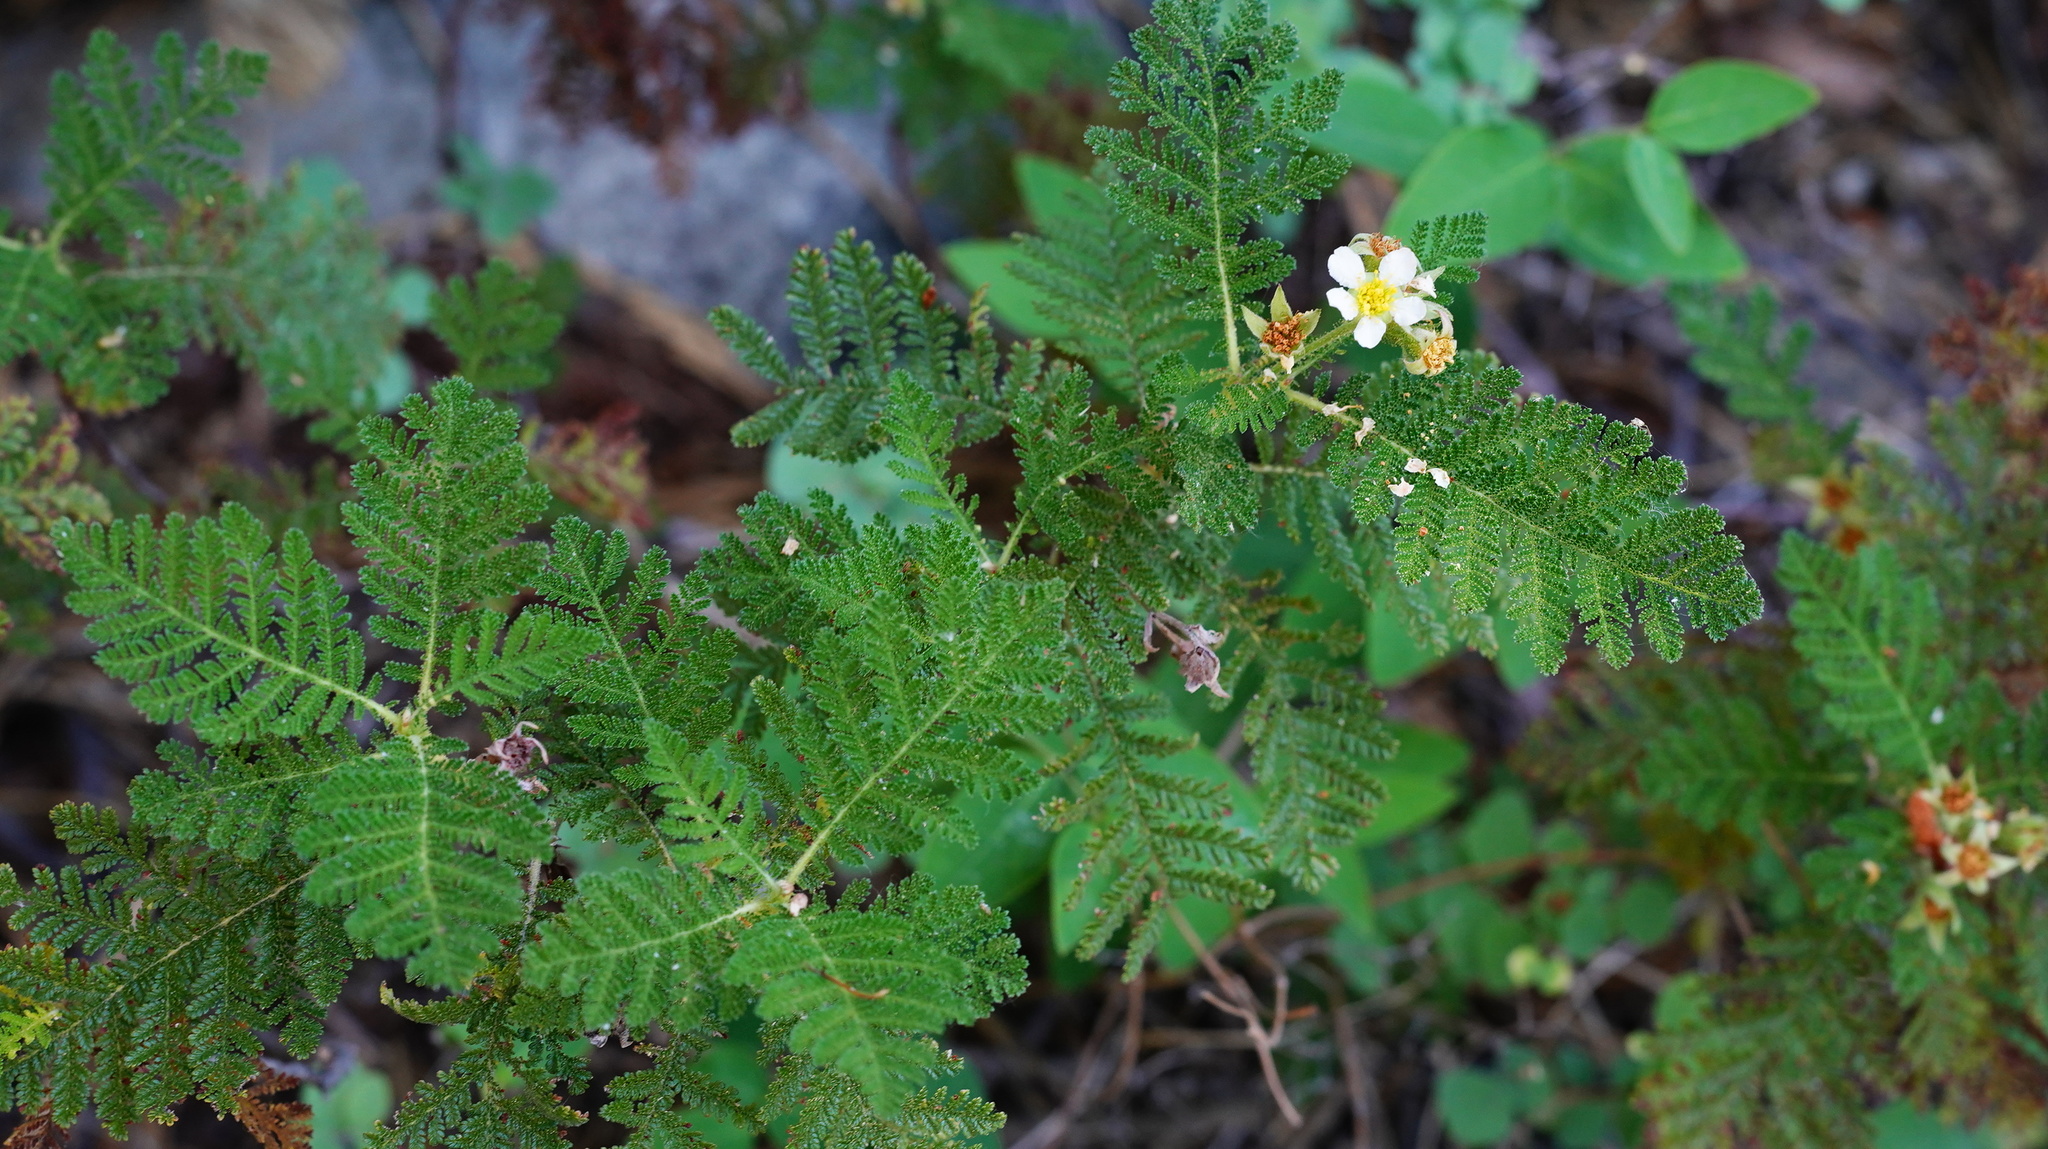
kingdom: Plantae
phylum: Tracheophyta
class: Magnoliopsida
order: Rosales
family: Rosaceae
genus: Chamaebatia
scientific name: Chamaebatia foliolosa
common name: Mountain misery
